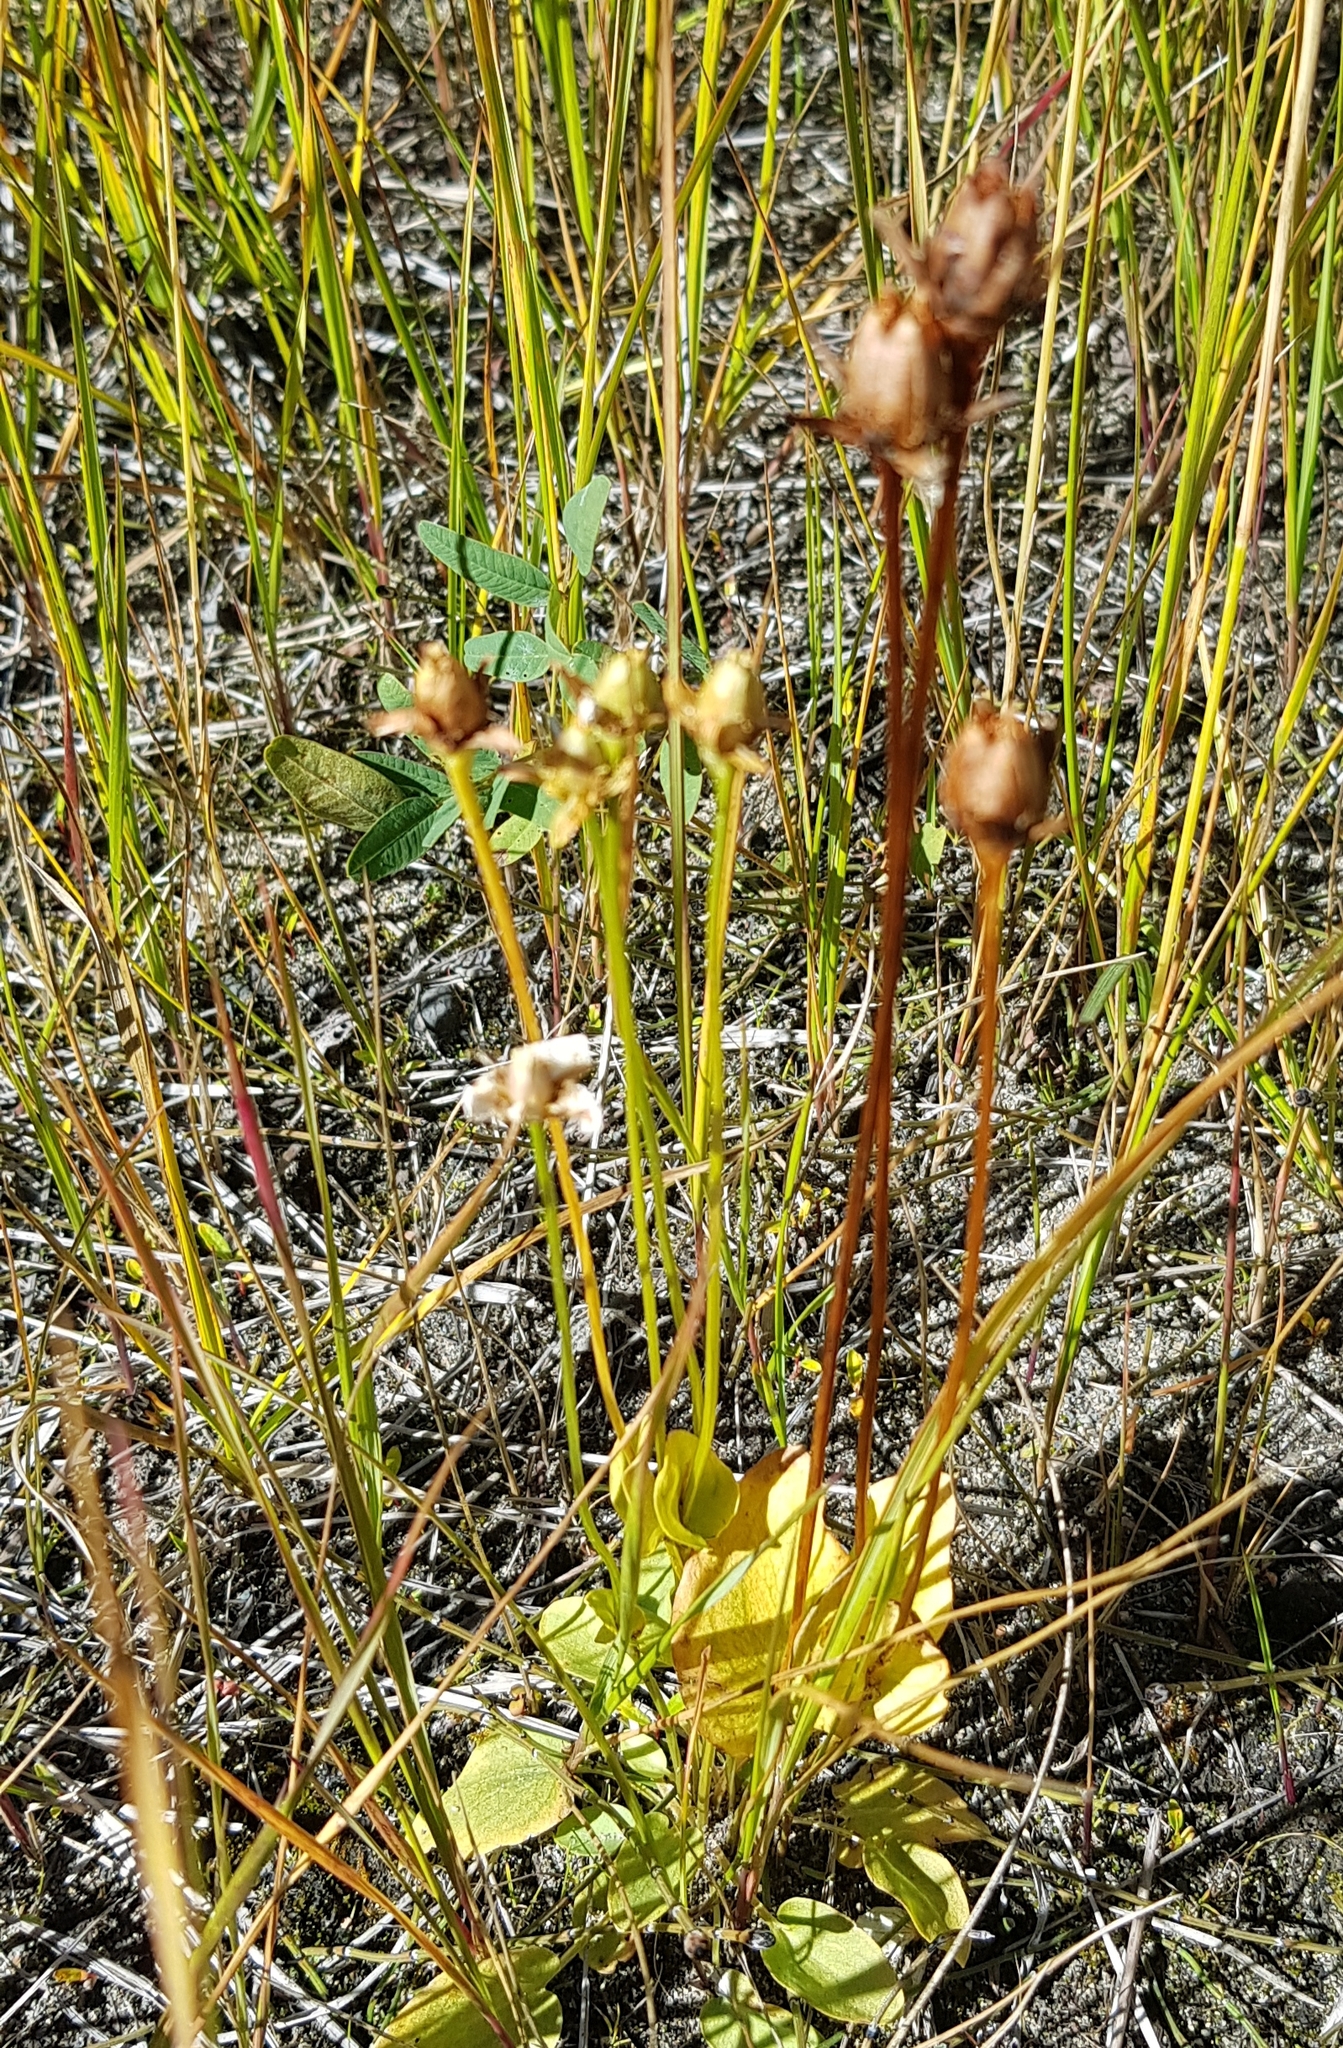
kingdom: Plantae
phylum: Tracheophyta
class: Magnoliopsida
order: Celastrales
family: Parnassiaceae
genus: Parnassia
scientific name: Parnassia palustris
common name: Grass-of-parnassus
